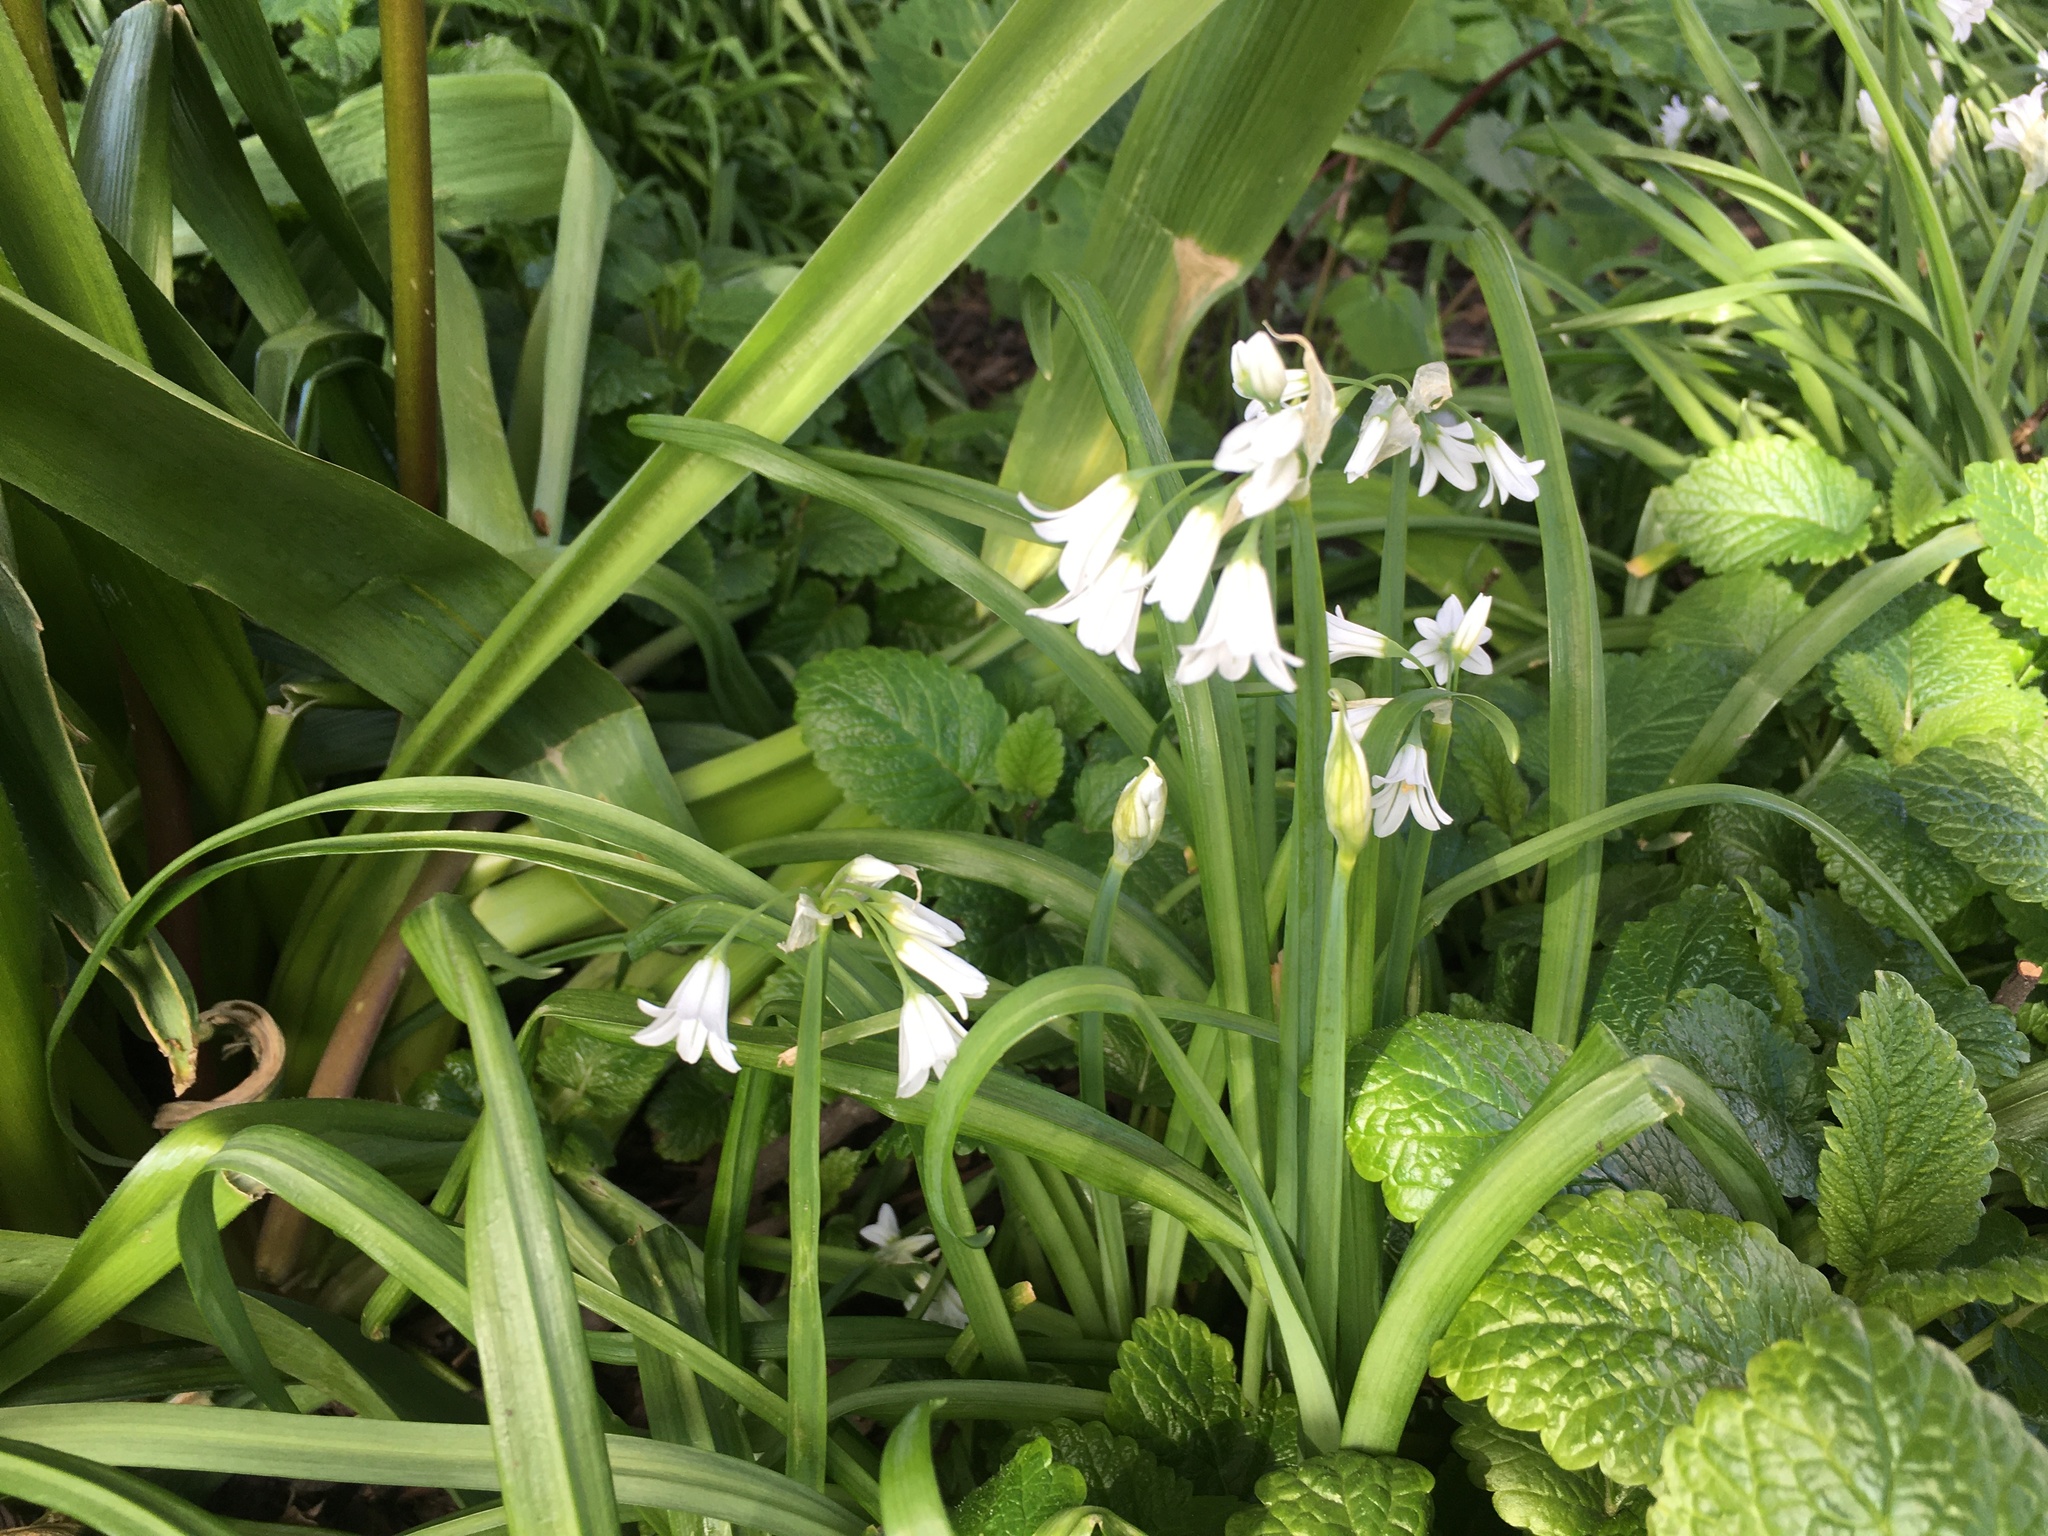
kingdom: Plantae
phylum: Tracheophyta
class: Liliopsida
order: Asparagales
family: Amaryllidaceae
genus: Allium
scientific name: Allium triquetrum
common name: Three-cornered garlic
